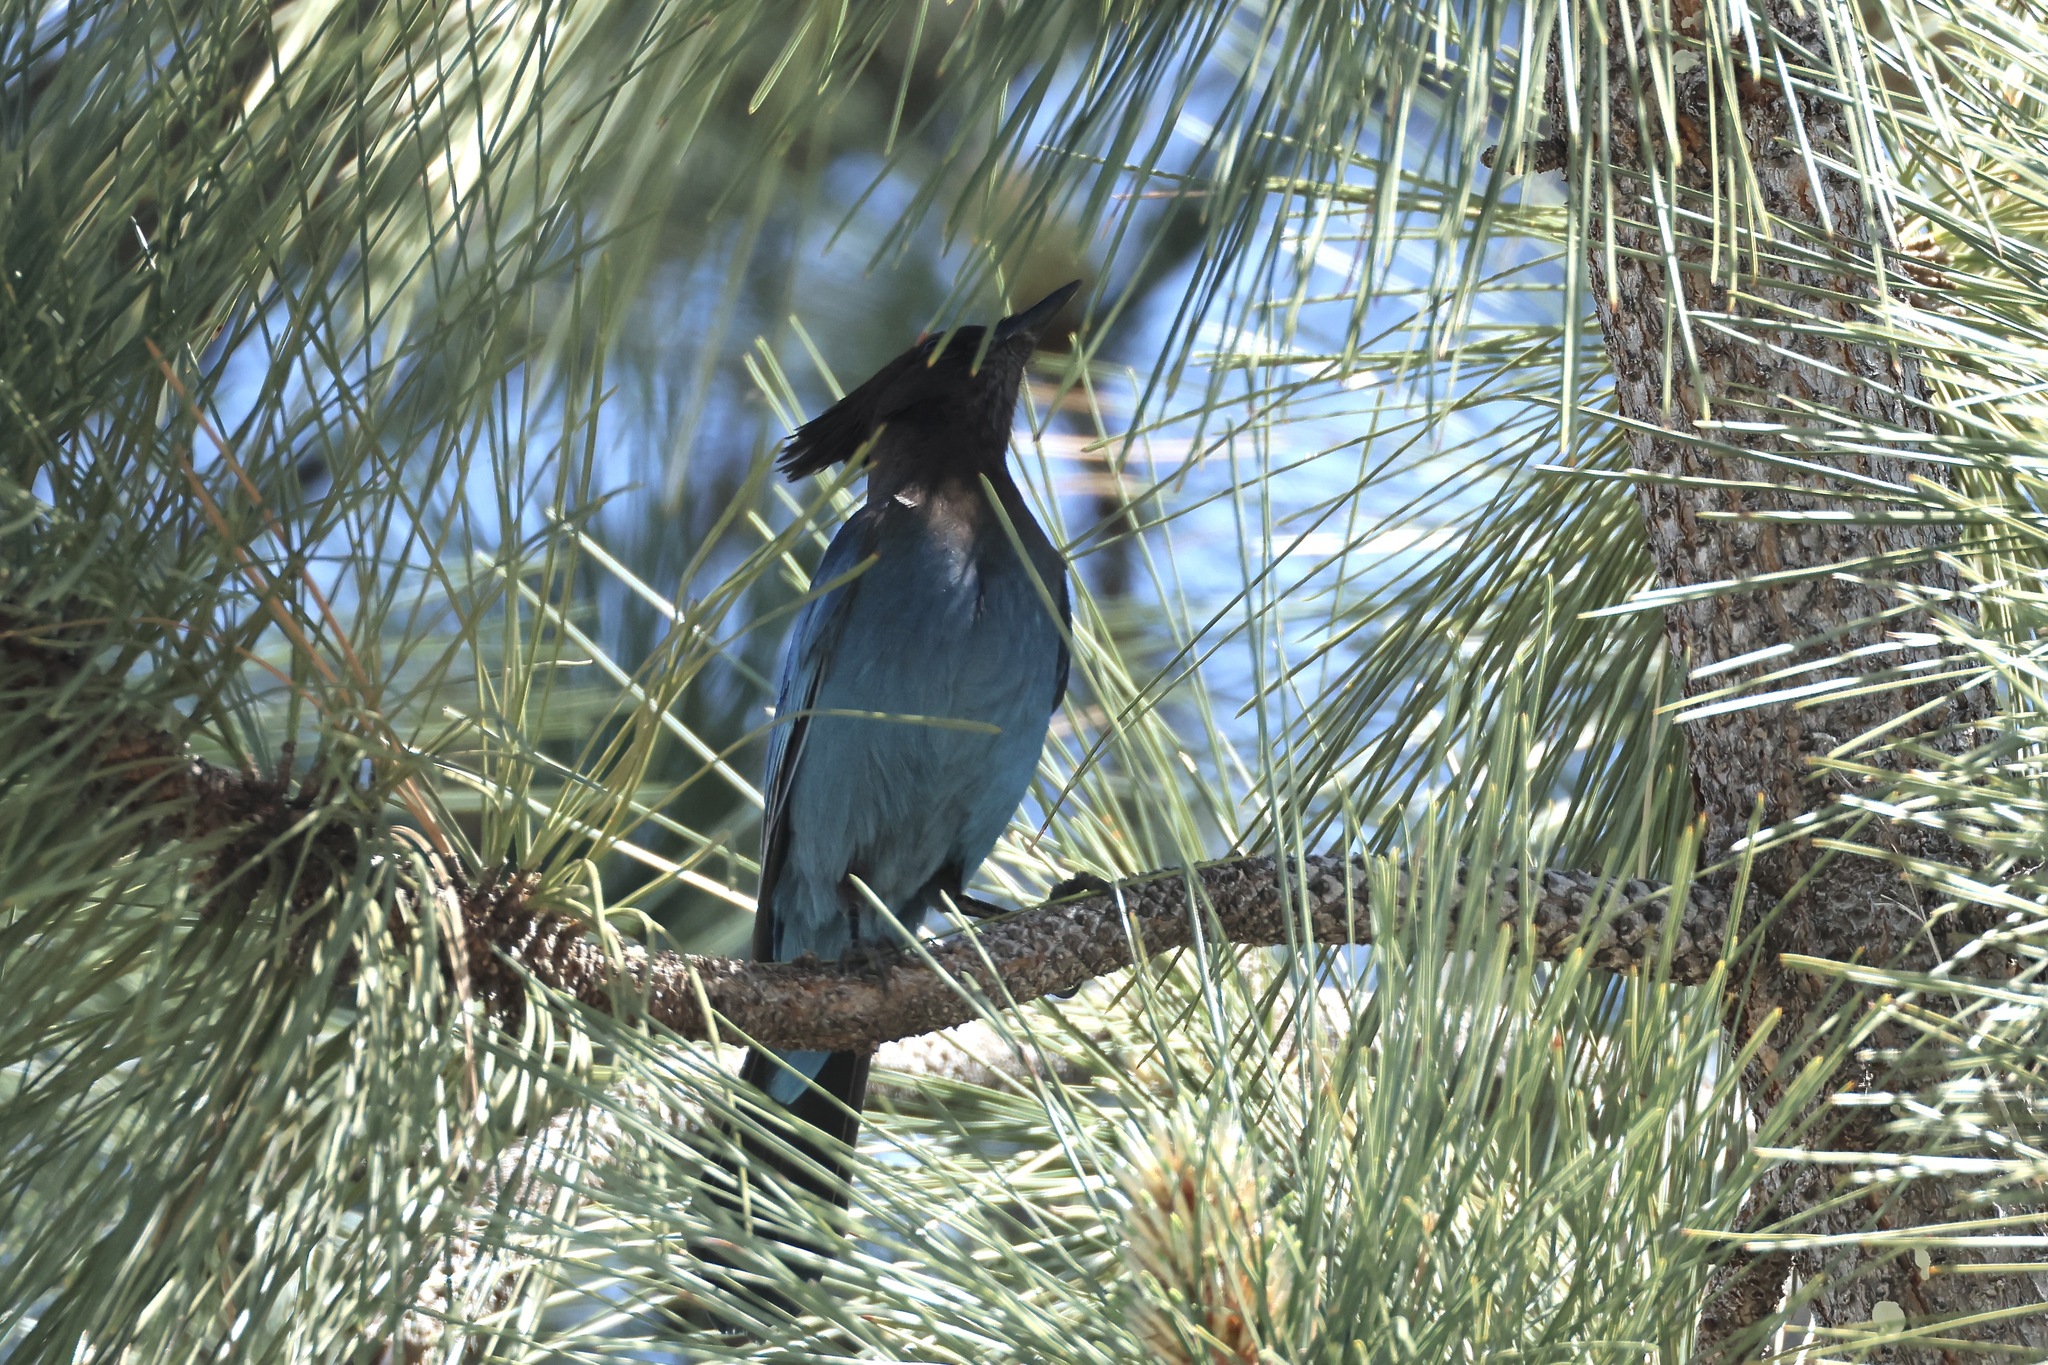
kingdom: Animalia
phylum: Chordata
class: Aves
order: Passeriformes
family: Corvidae
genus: Cyanocitta
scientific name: Cyanocitta stelleri
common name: Steller's jay
